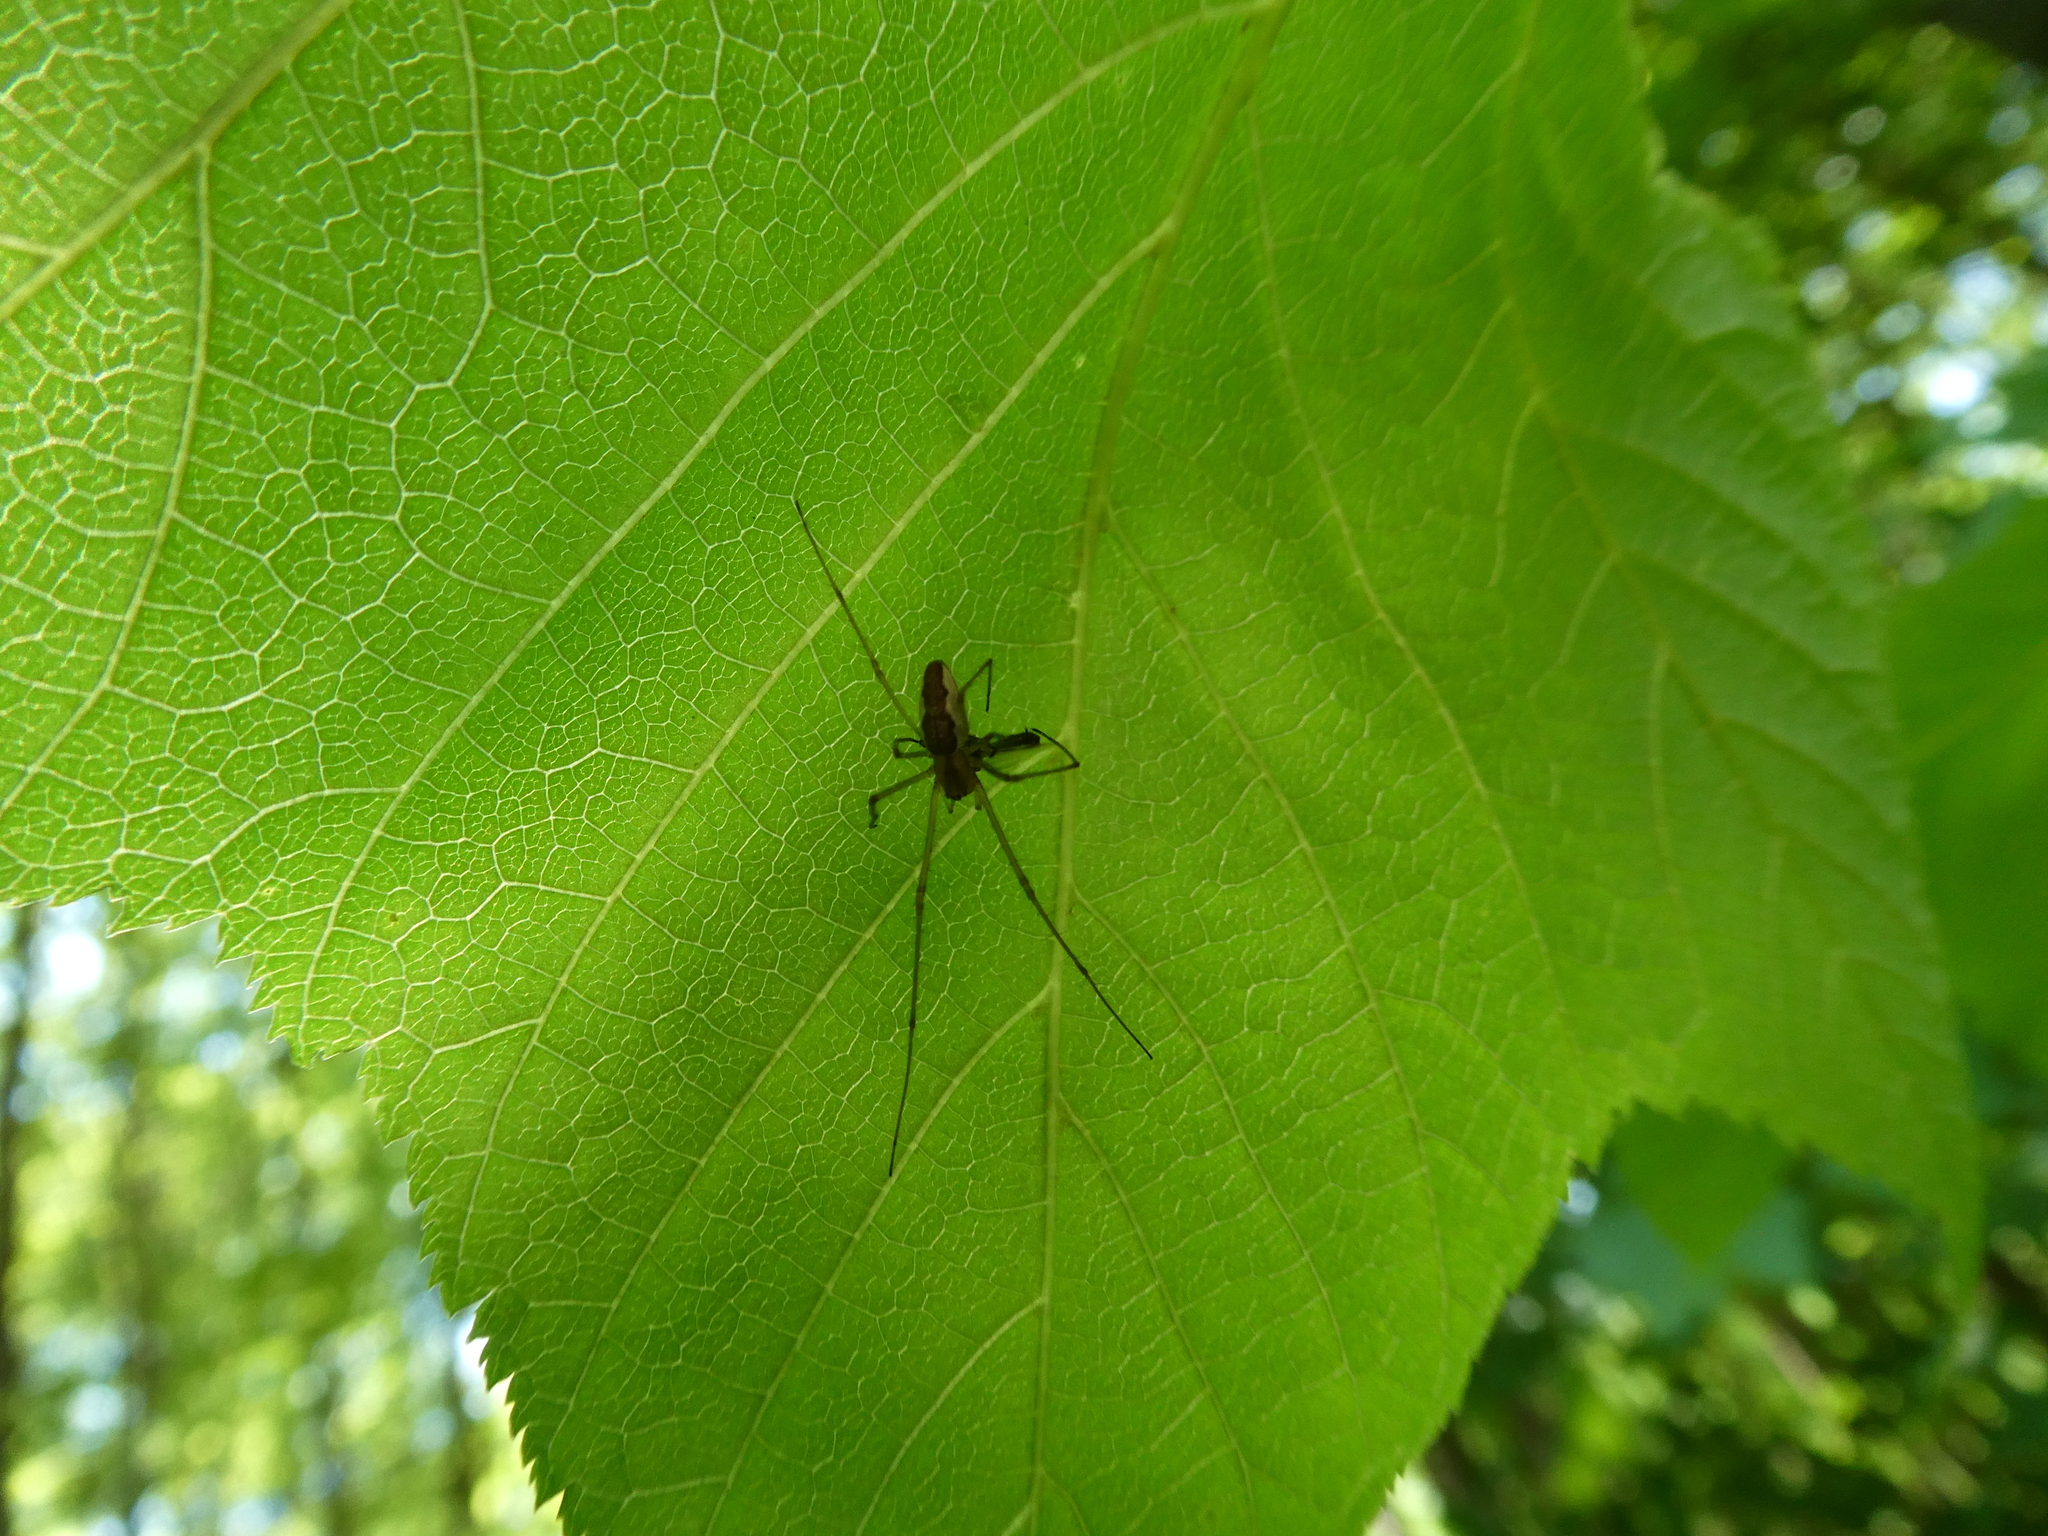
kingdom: Animalia
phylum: Arthropoda
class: Arachnida
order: Araneae
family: Tetragnathidae
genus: Tetragnatha
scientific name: Tetragnatha
